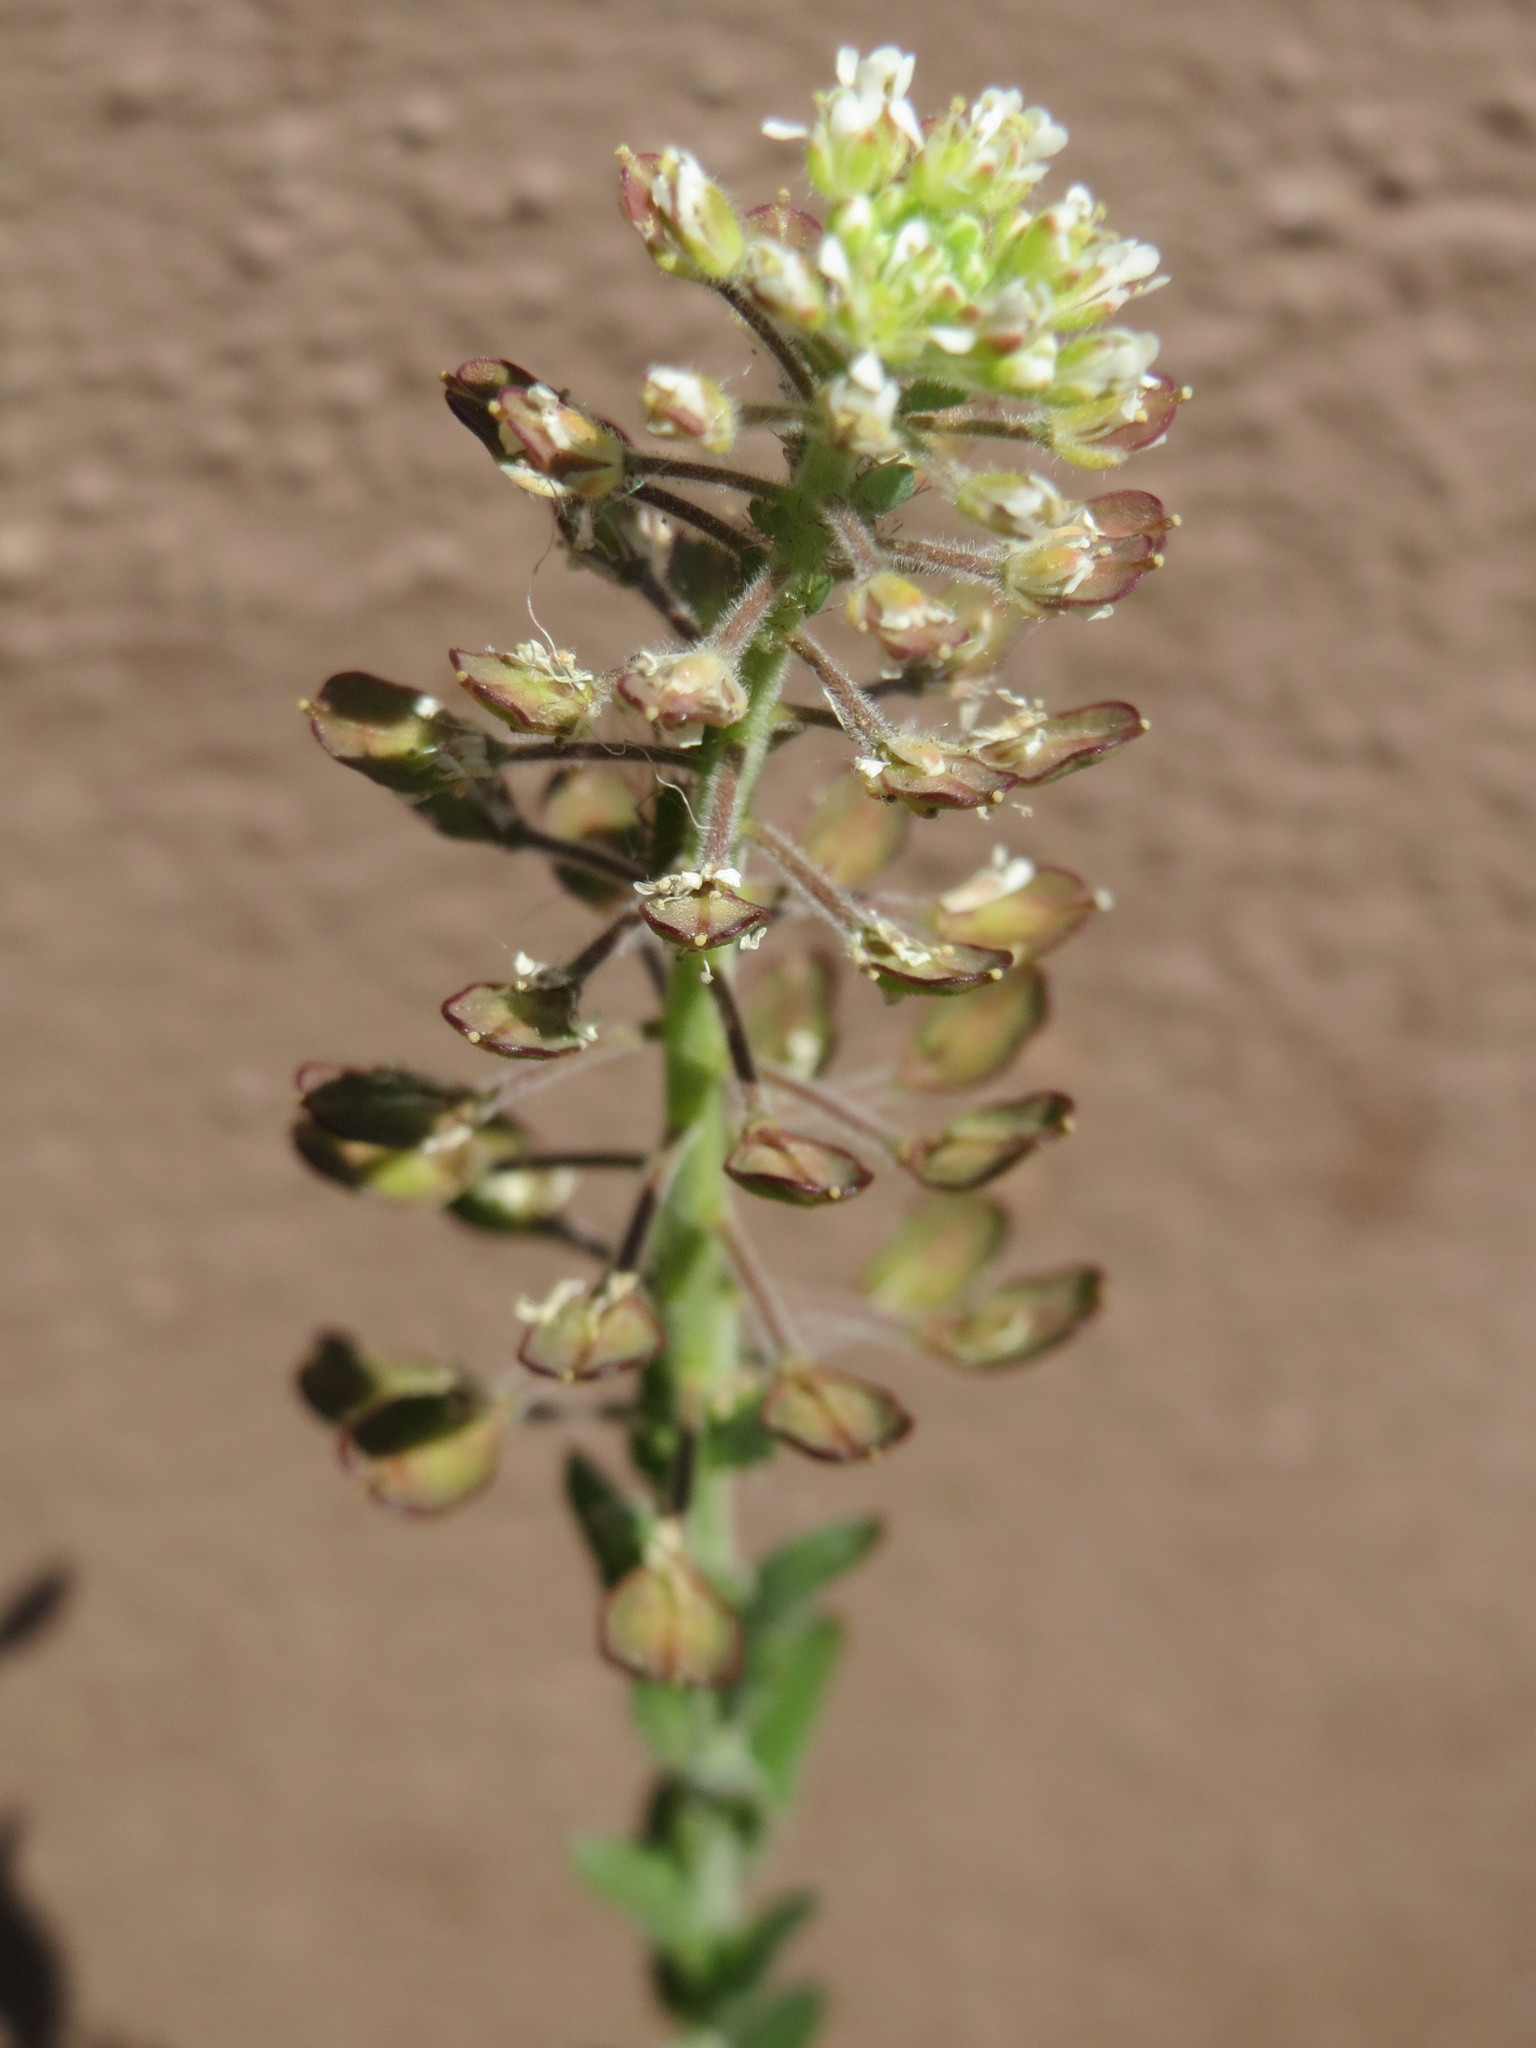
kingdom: Plantae
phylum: Tracheophyta
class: Magnoliopsida
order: Brassicales
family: Brassicaceae
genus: Lepidium
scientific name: Lepidium campestre
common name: Field pepperwort
